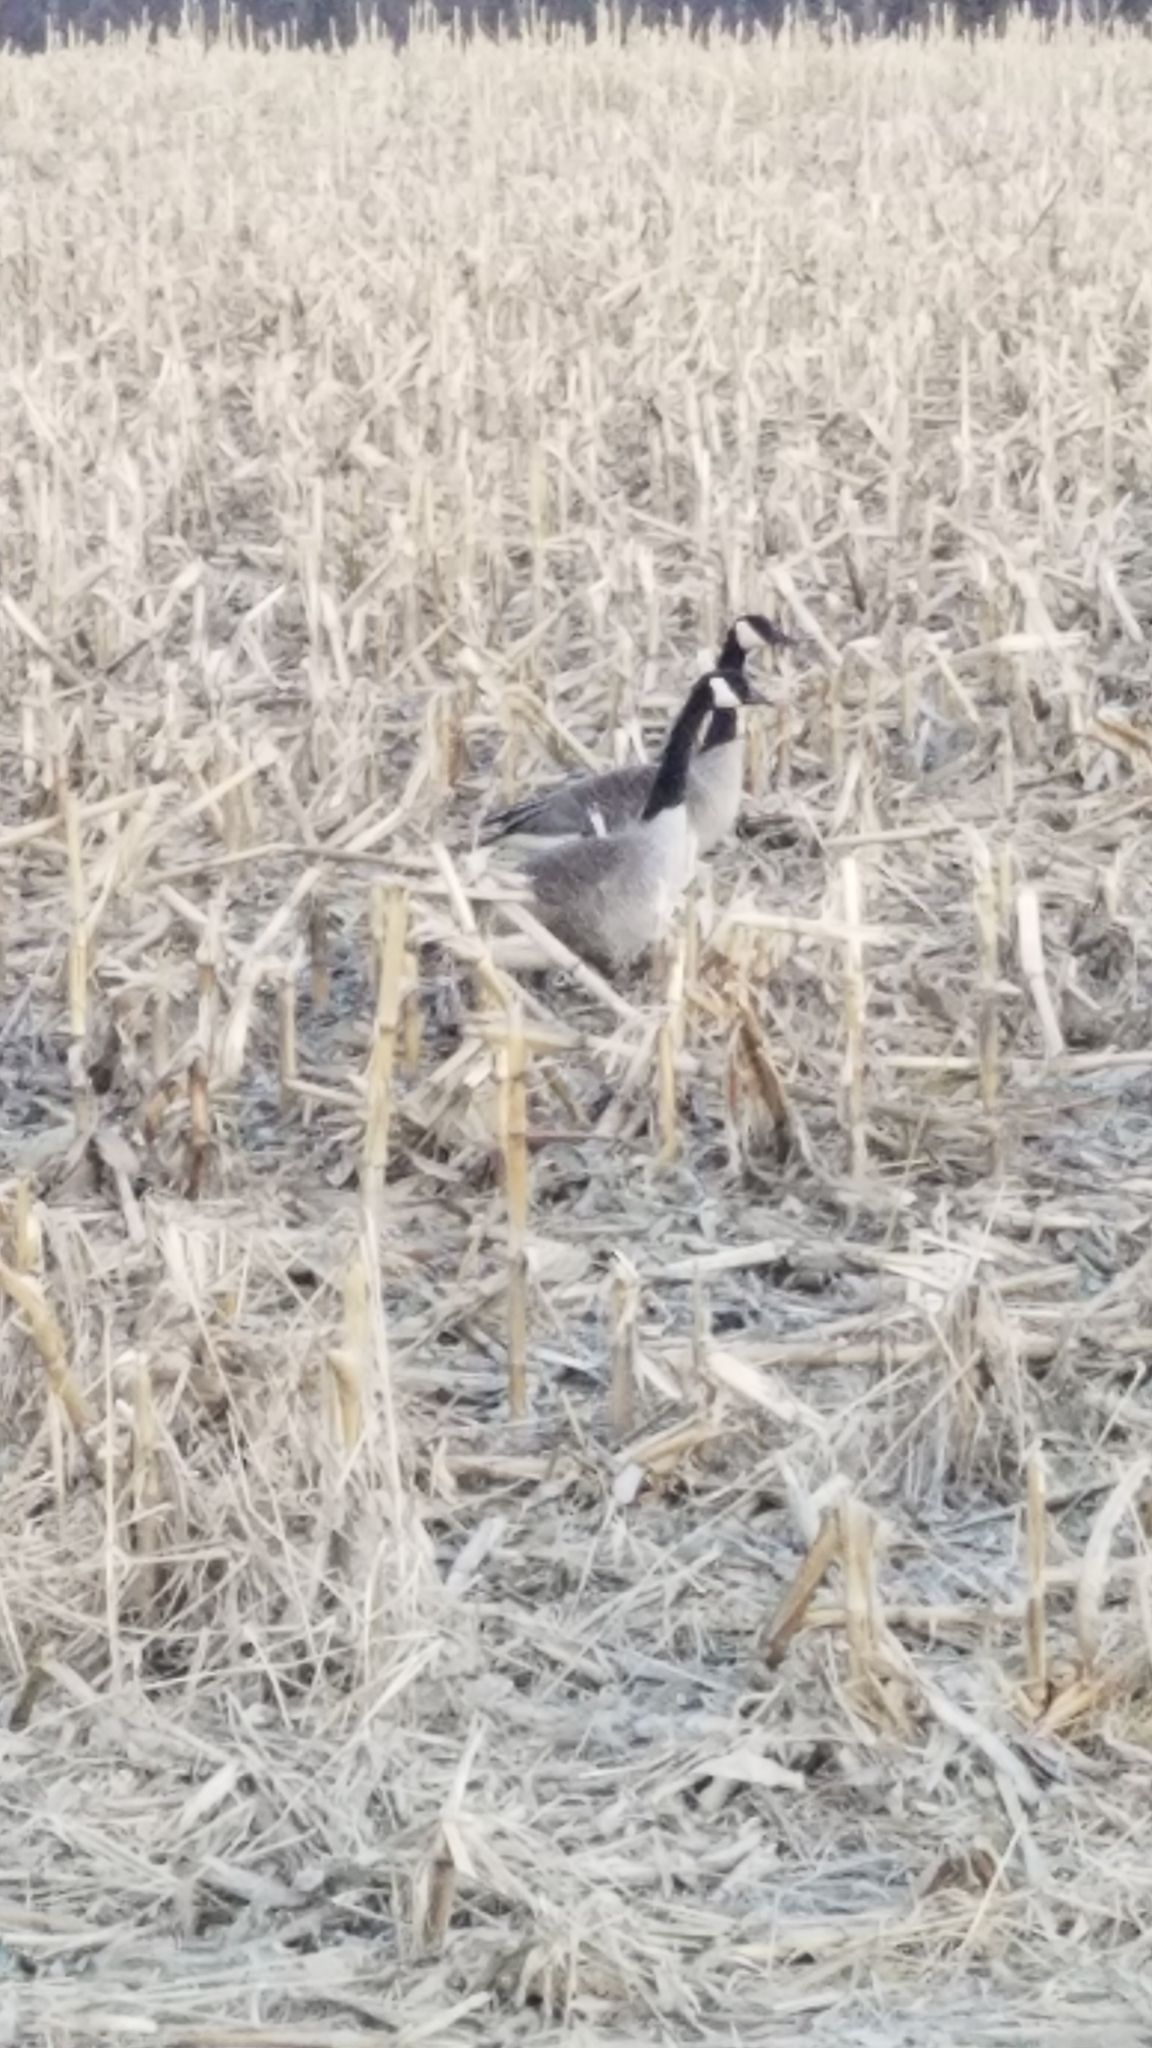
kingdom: Animalia
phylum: Chordata
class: Aves
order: Anseriformes
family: Anatidae
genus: Branta
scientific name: Branta canadensis
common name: Canada goose
